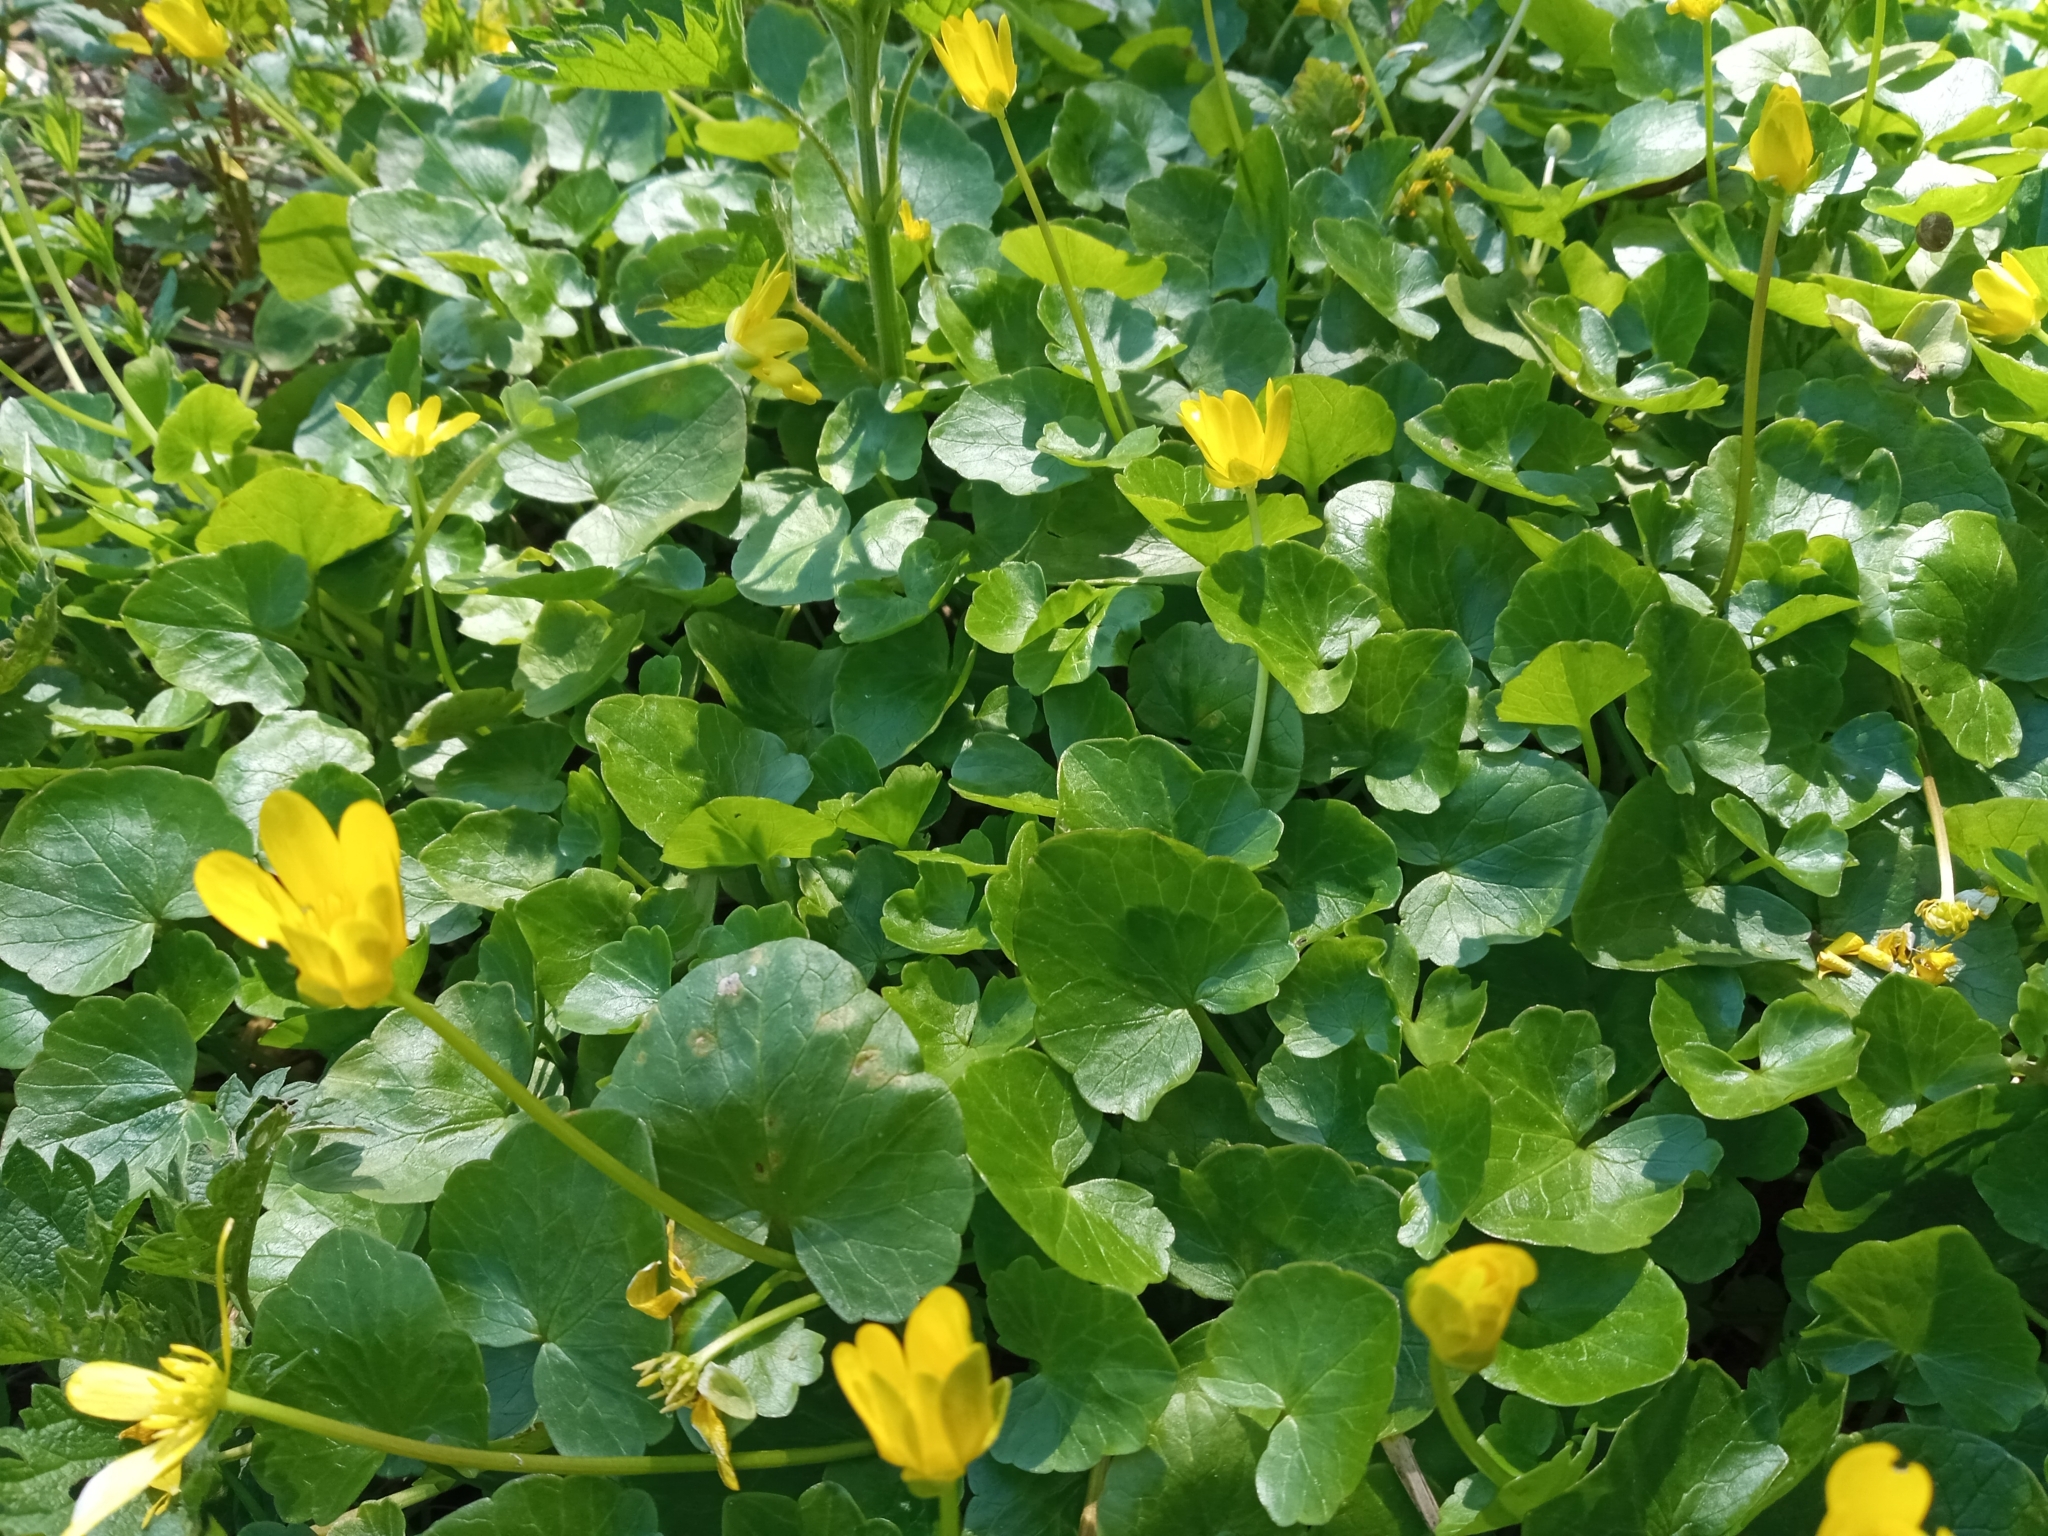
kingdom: Plantae
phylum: Tracheophyta
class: Magnoliopsida
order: Ranunculales
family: Ranunculaceae
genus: Ficaria
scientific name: Ficaria verna
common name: Lesser celandine
